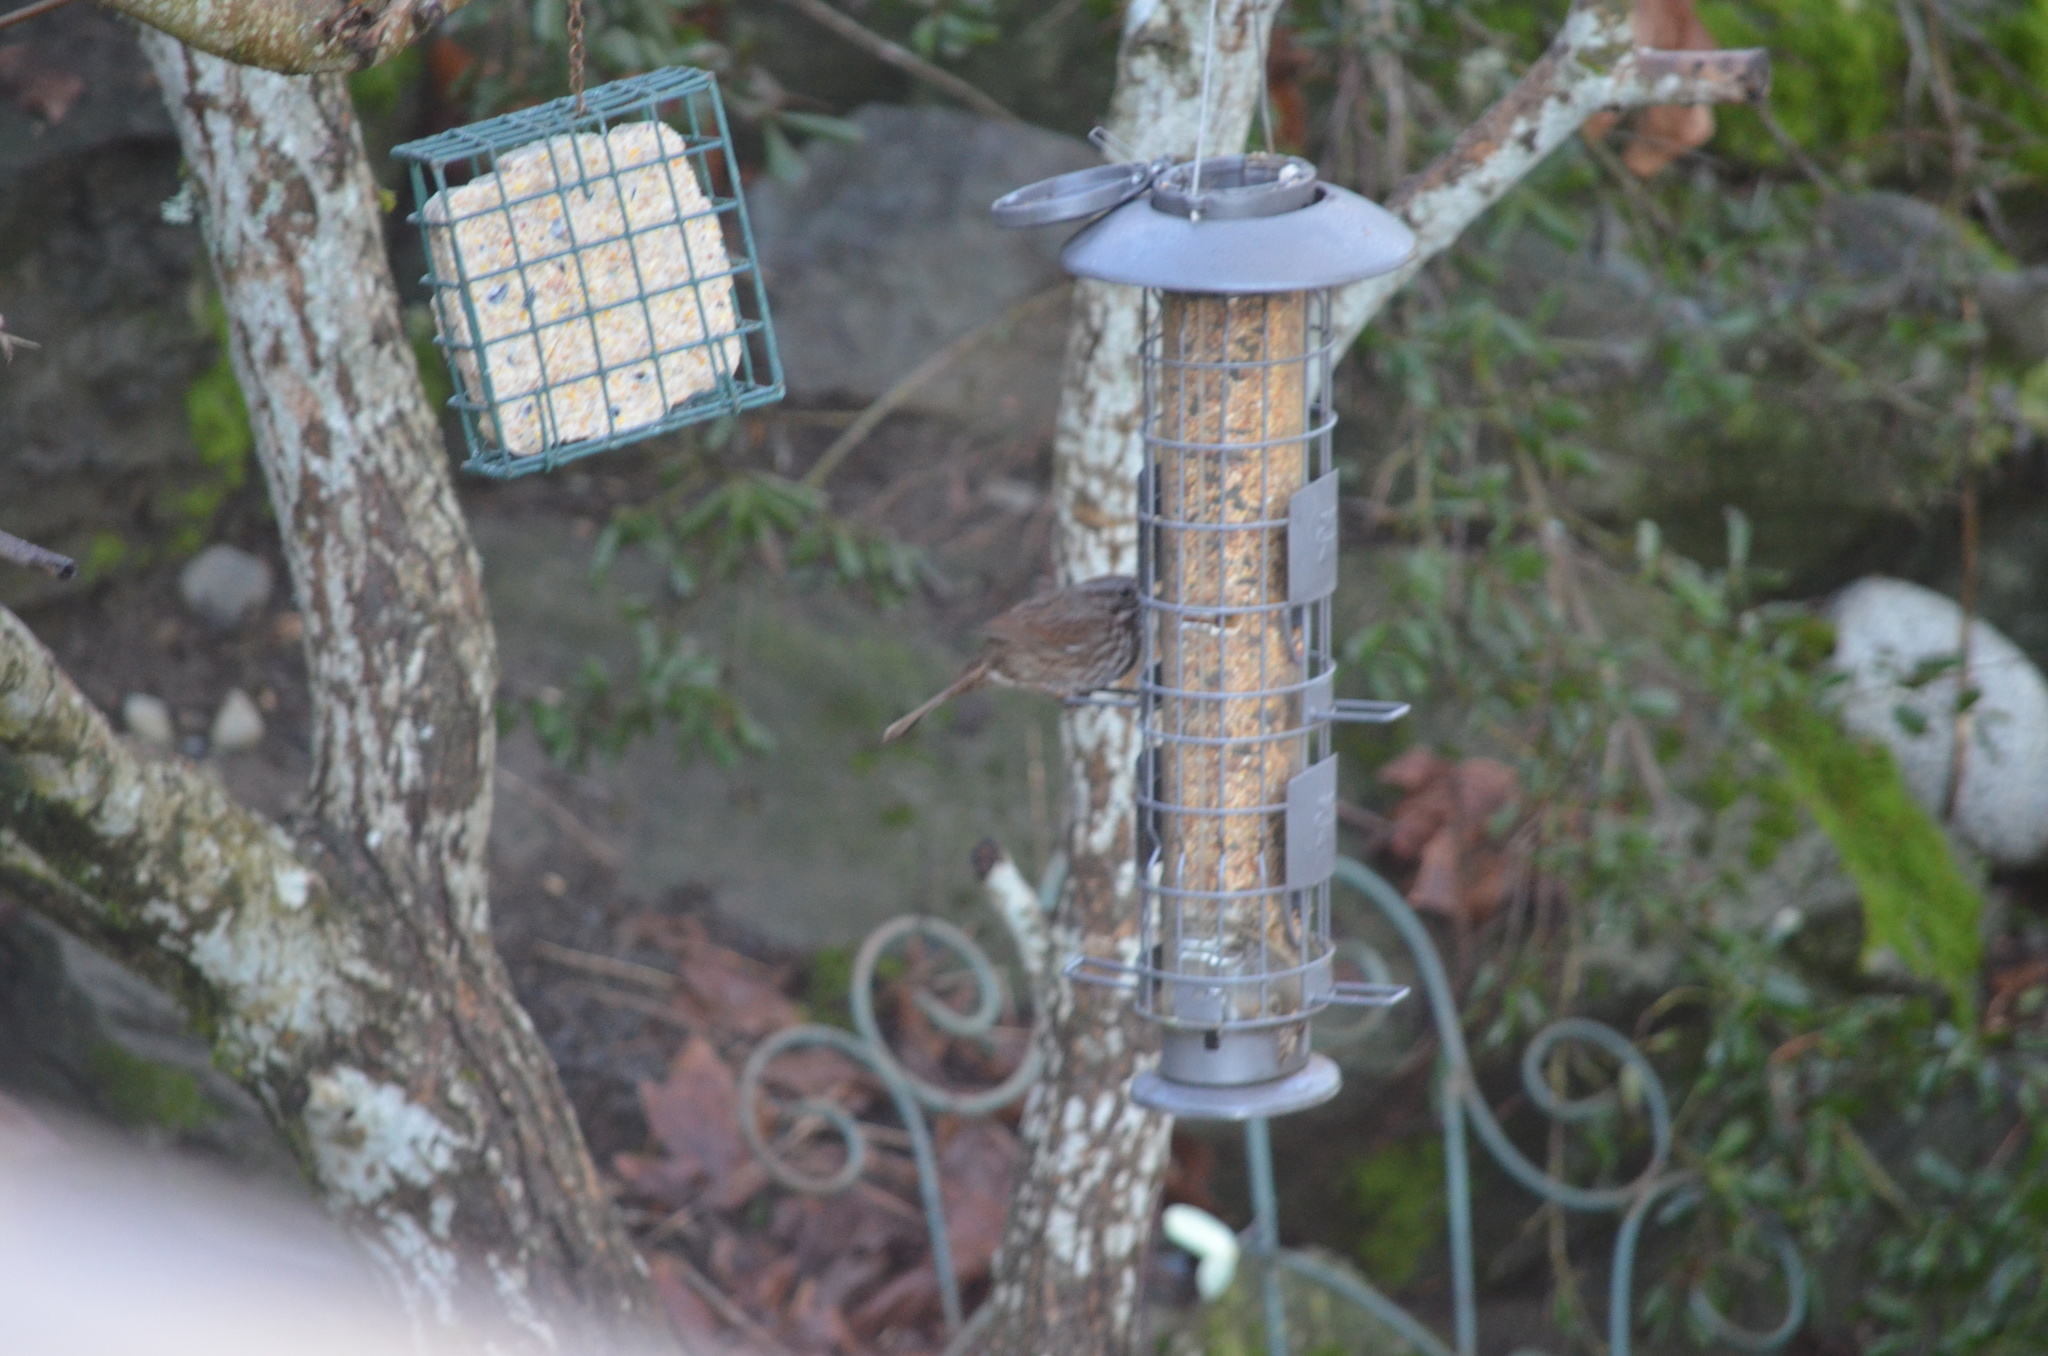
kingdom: Animalia
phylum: Chordata
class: Aves
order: Passeriformes
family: Passerellidae
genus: Melospiza
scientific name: Melospiza melodia
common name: Song sparrow
